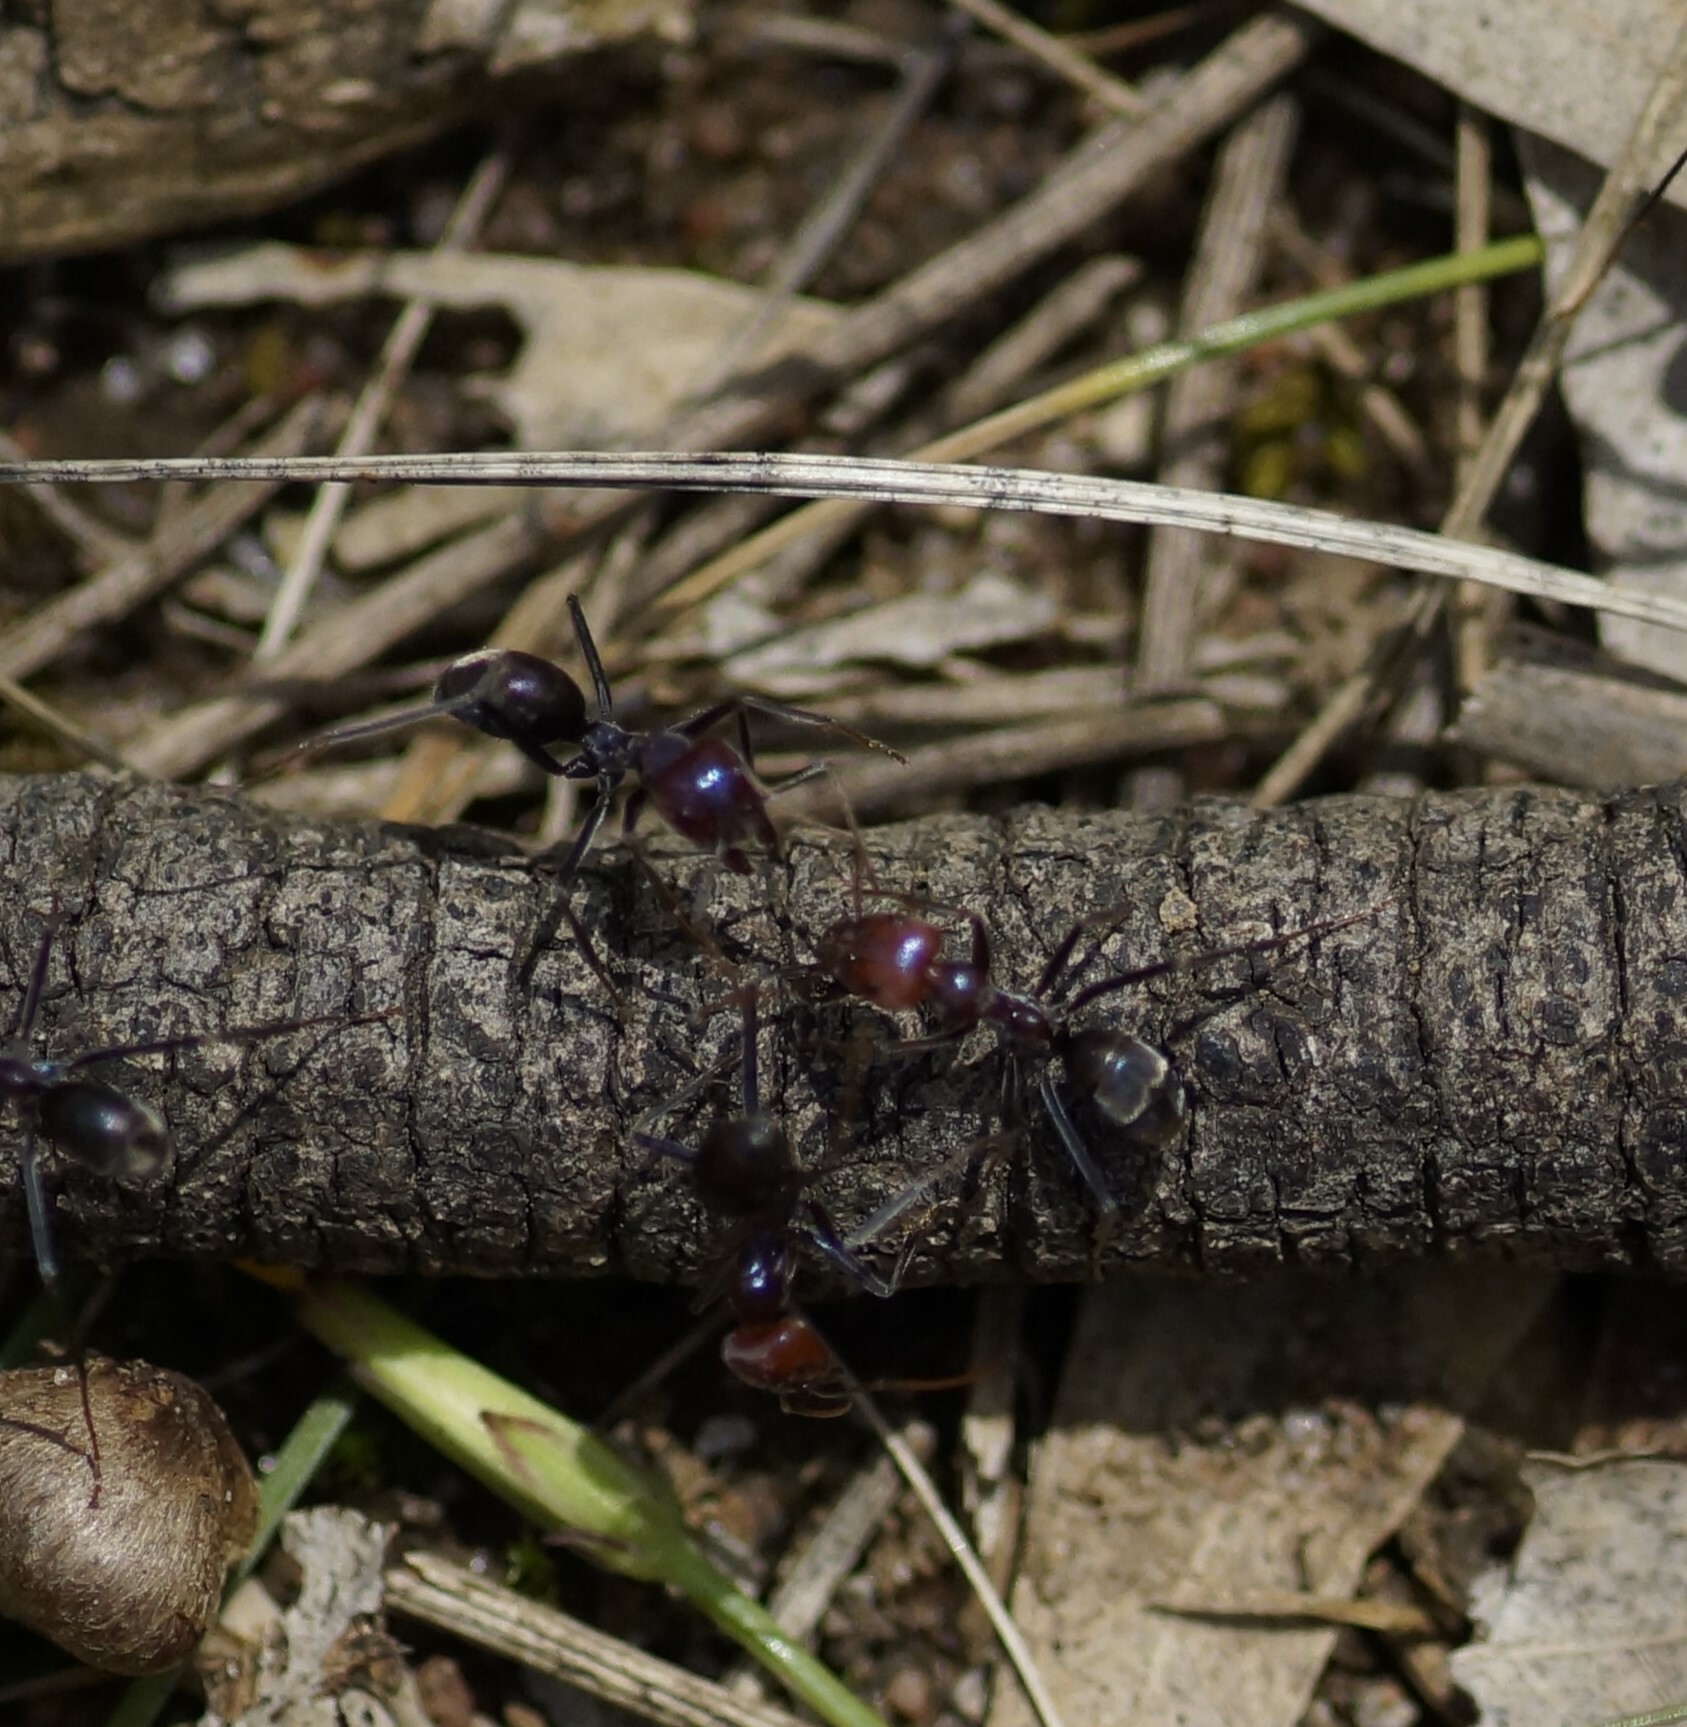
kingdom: Animalia
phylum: Arthropoda
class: Insecta
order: Hymenoptera
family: Formicidae
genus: Iridomyrmex
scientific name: Iridomyrmex purpureus
